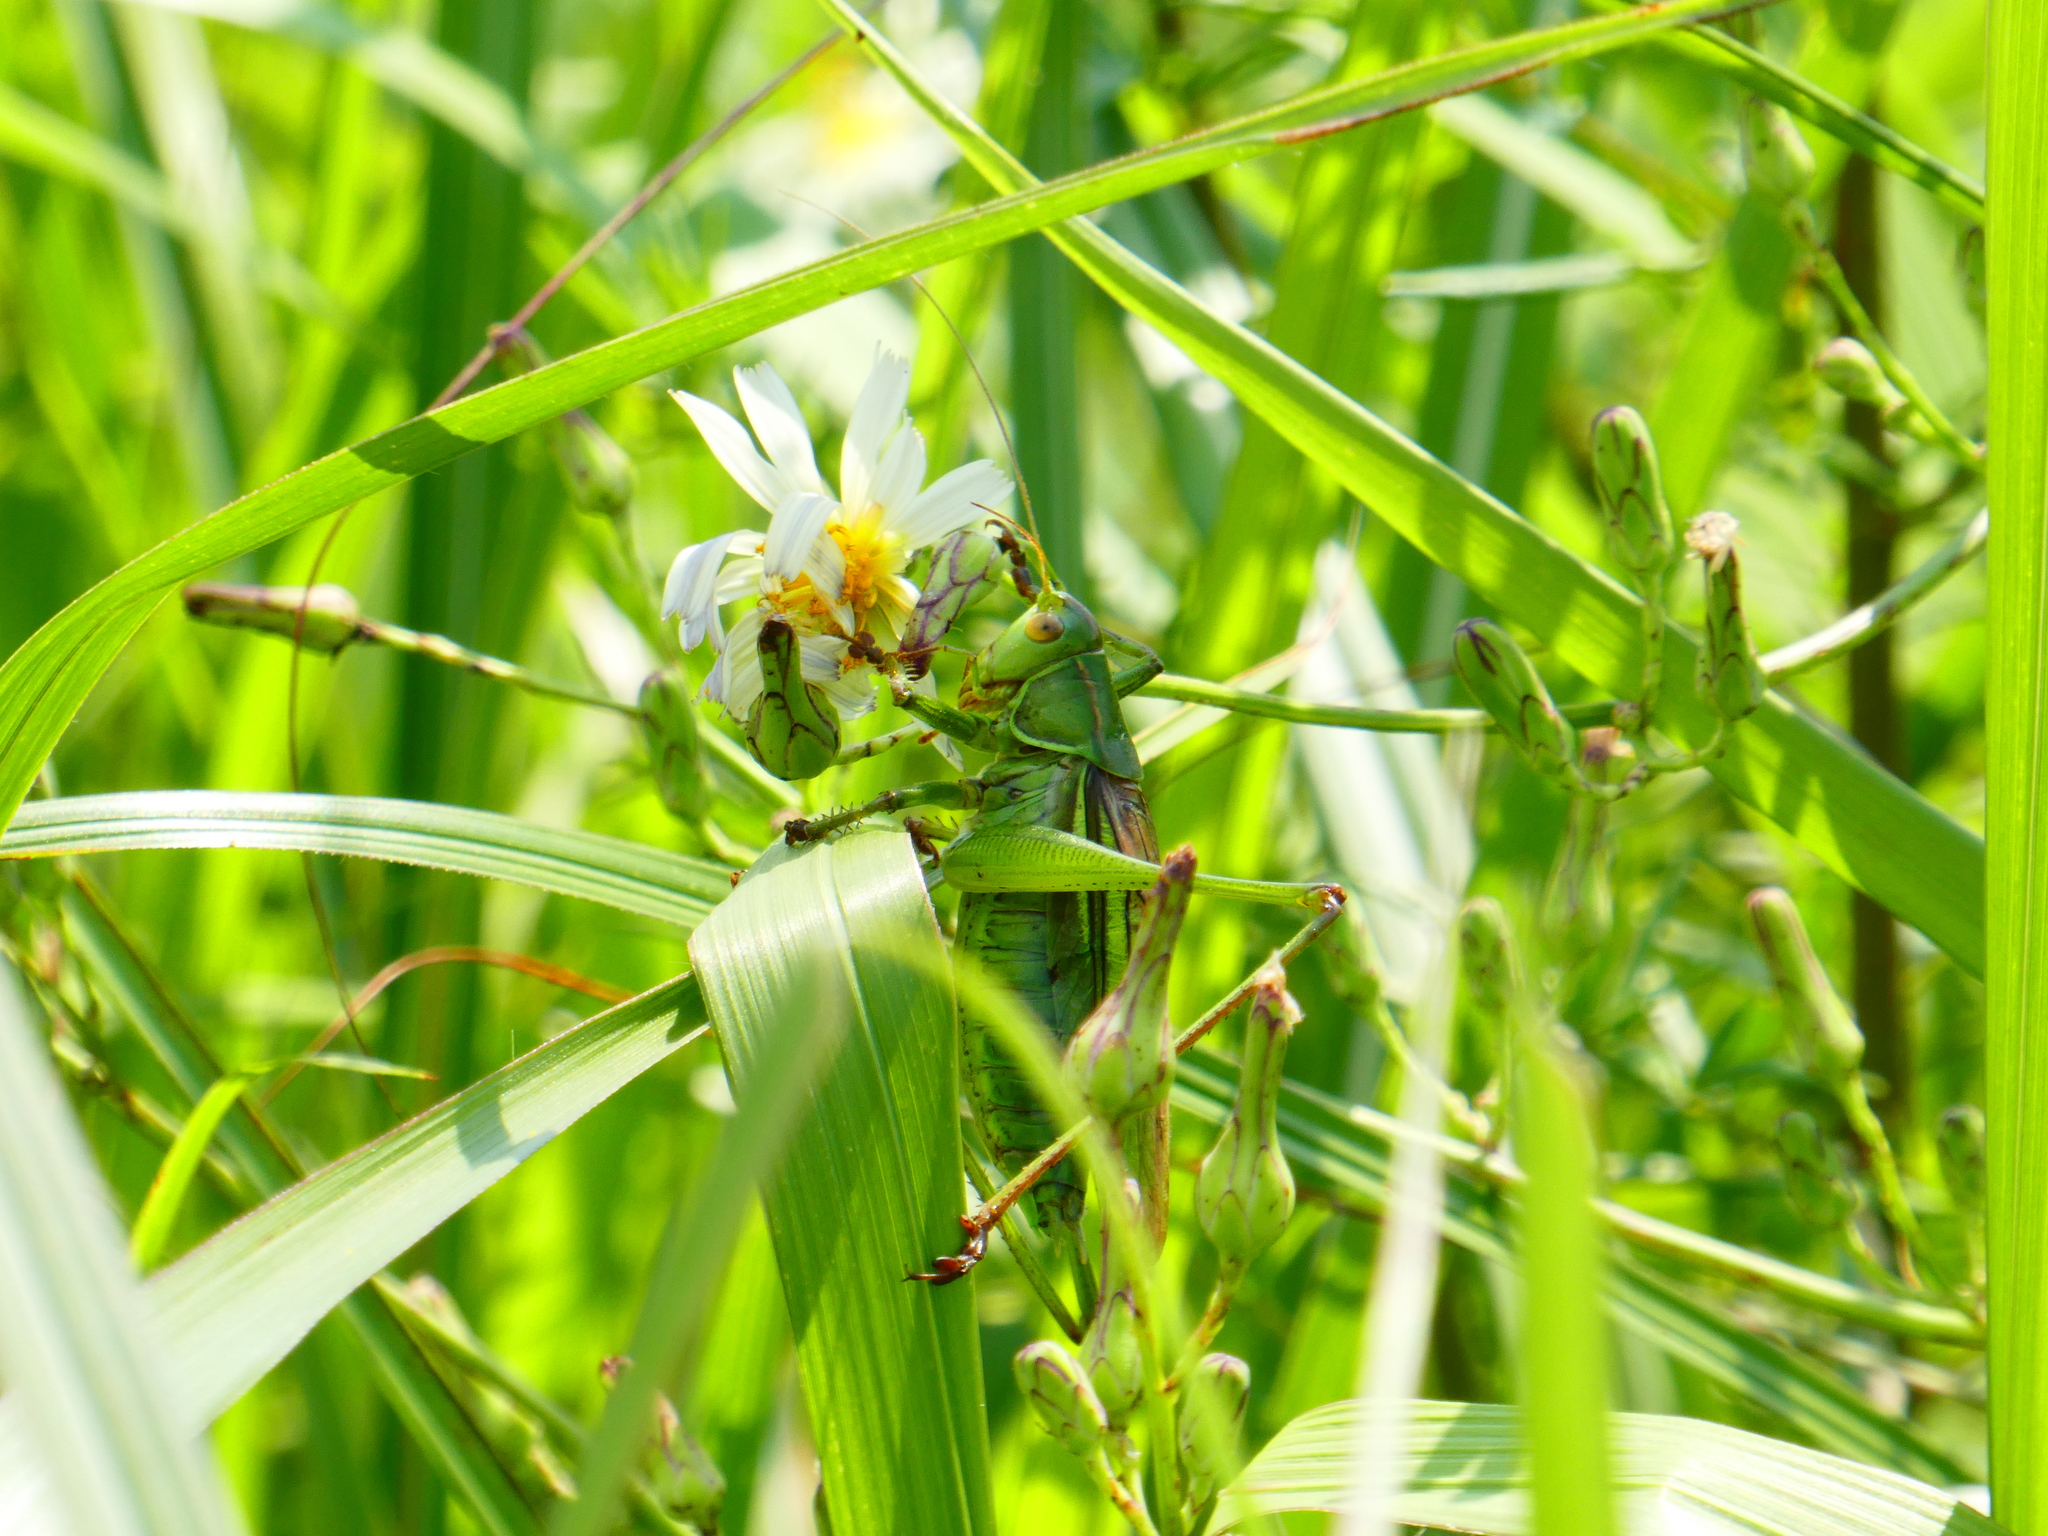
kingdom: Animalia
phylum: Arthropoda
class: Insecta
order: Orthoptera
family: Tettigoniidae
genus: Gampsocleis
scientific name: Gampsocleis ussuriensis
